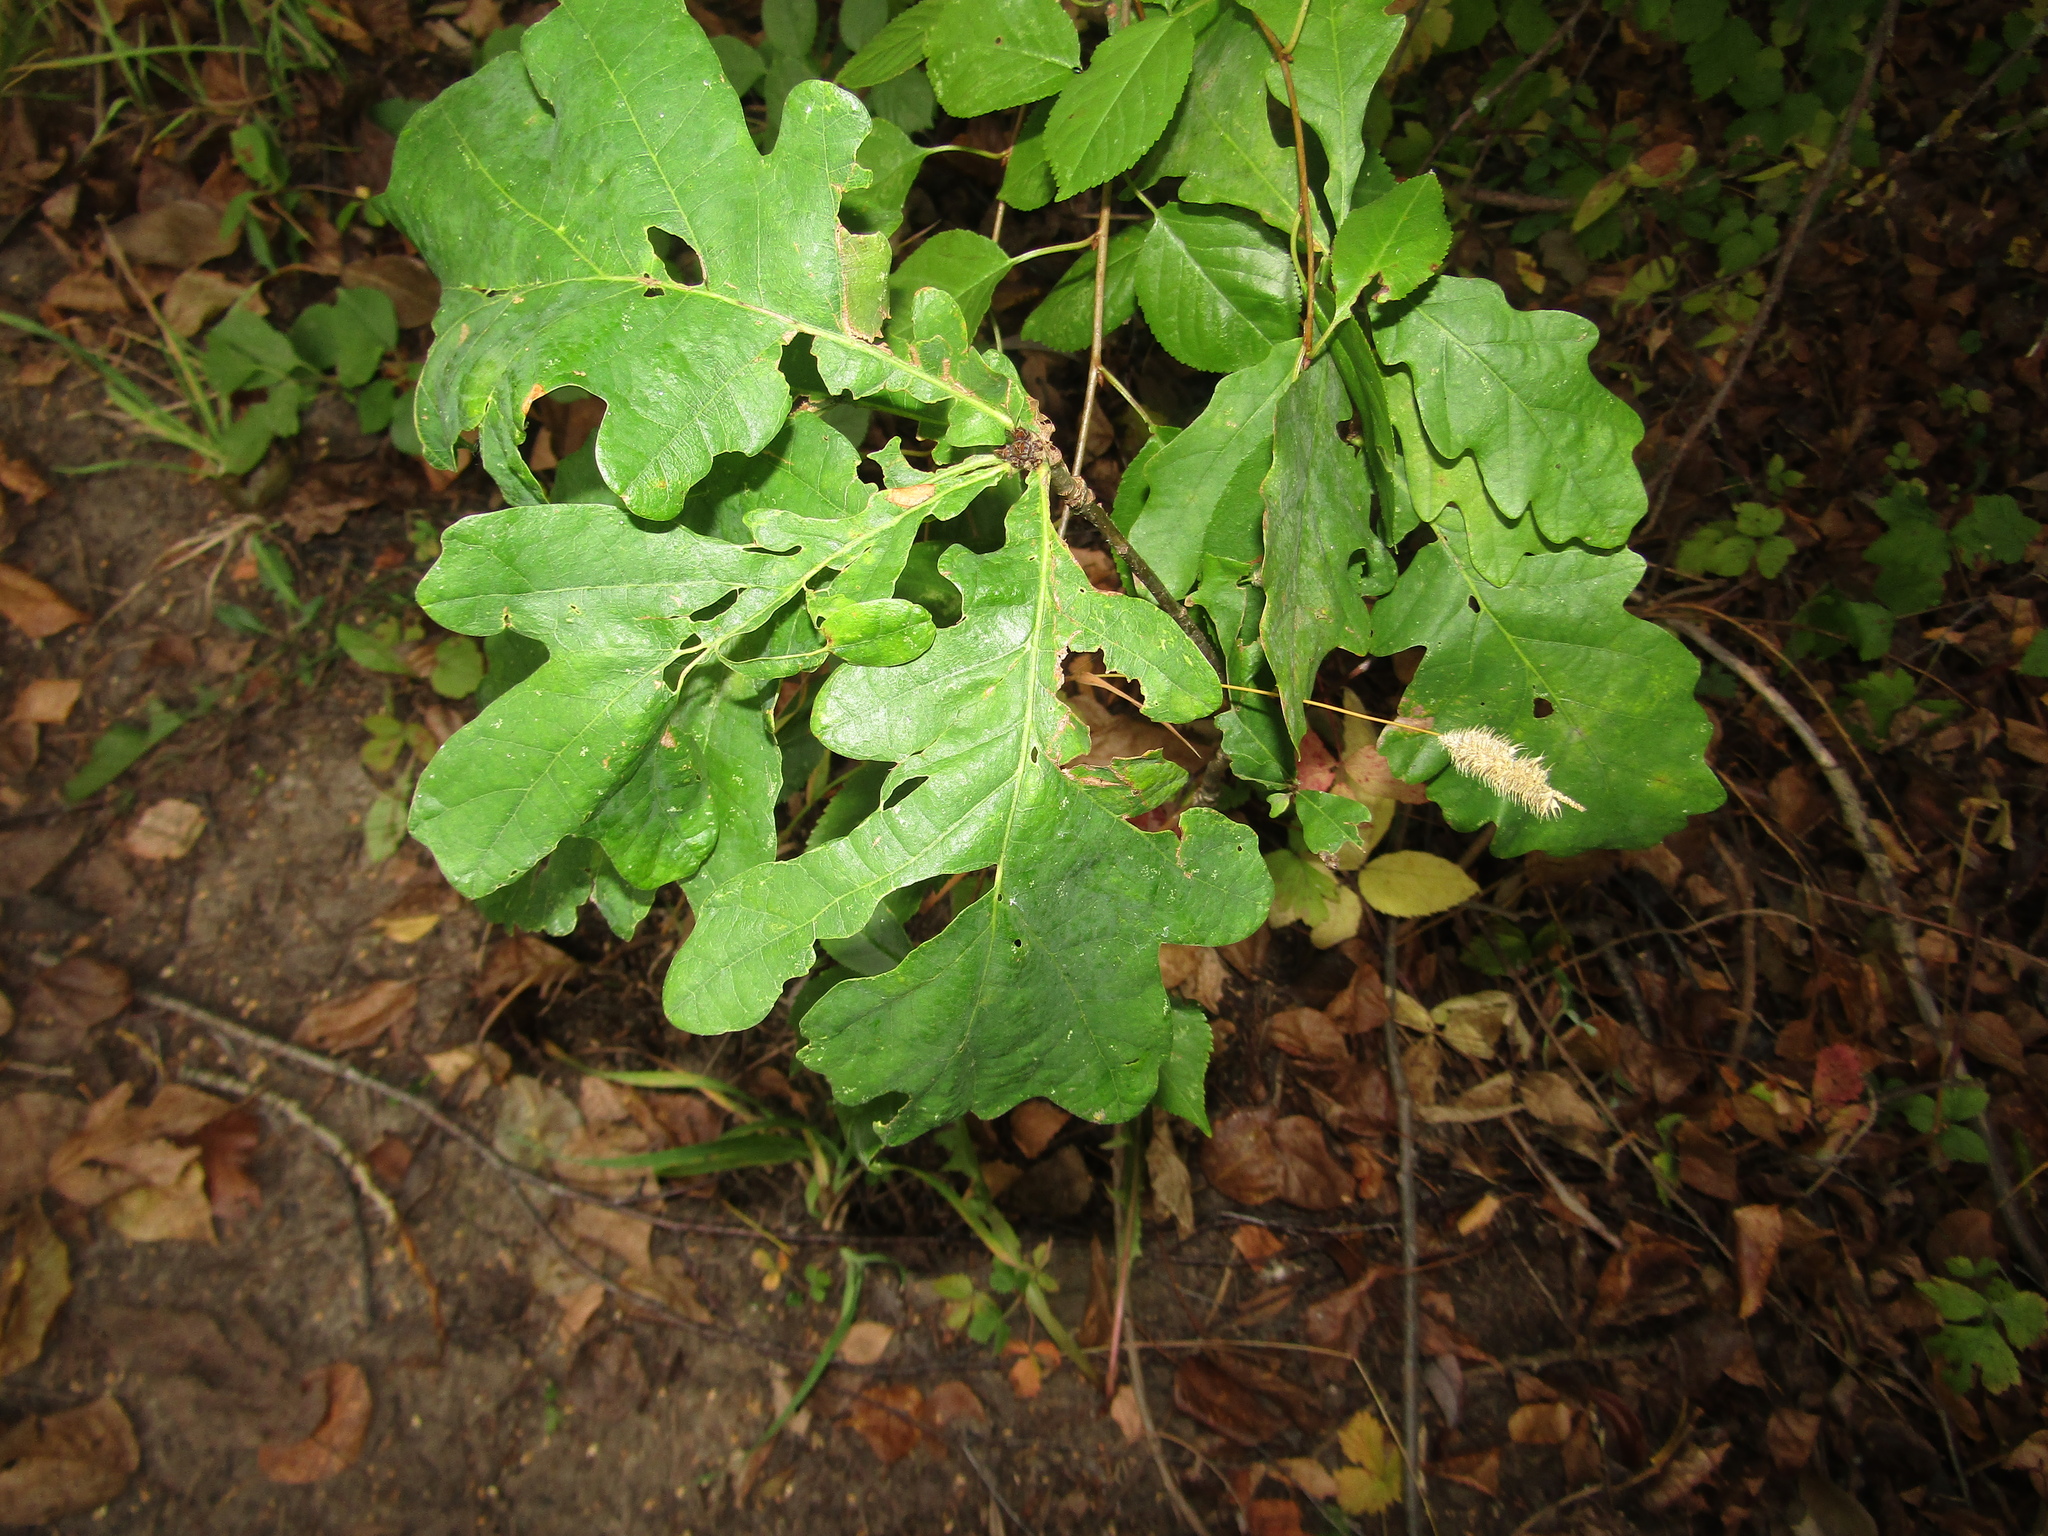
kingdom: Plantae
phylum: Tracheophyta
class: Magnoliopsida
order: Fagales
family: Fagaceae
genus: Quercus
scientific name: Quercus robur
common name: Pedunculate oak
